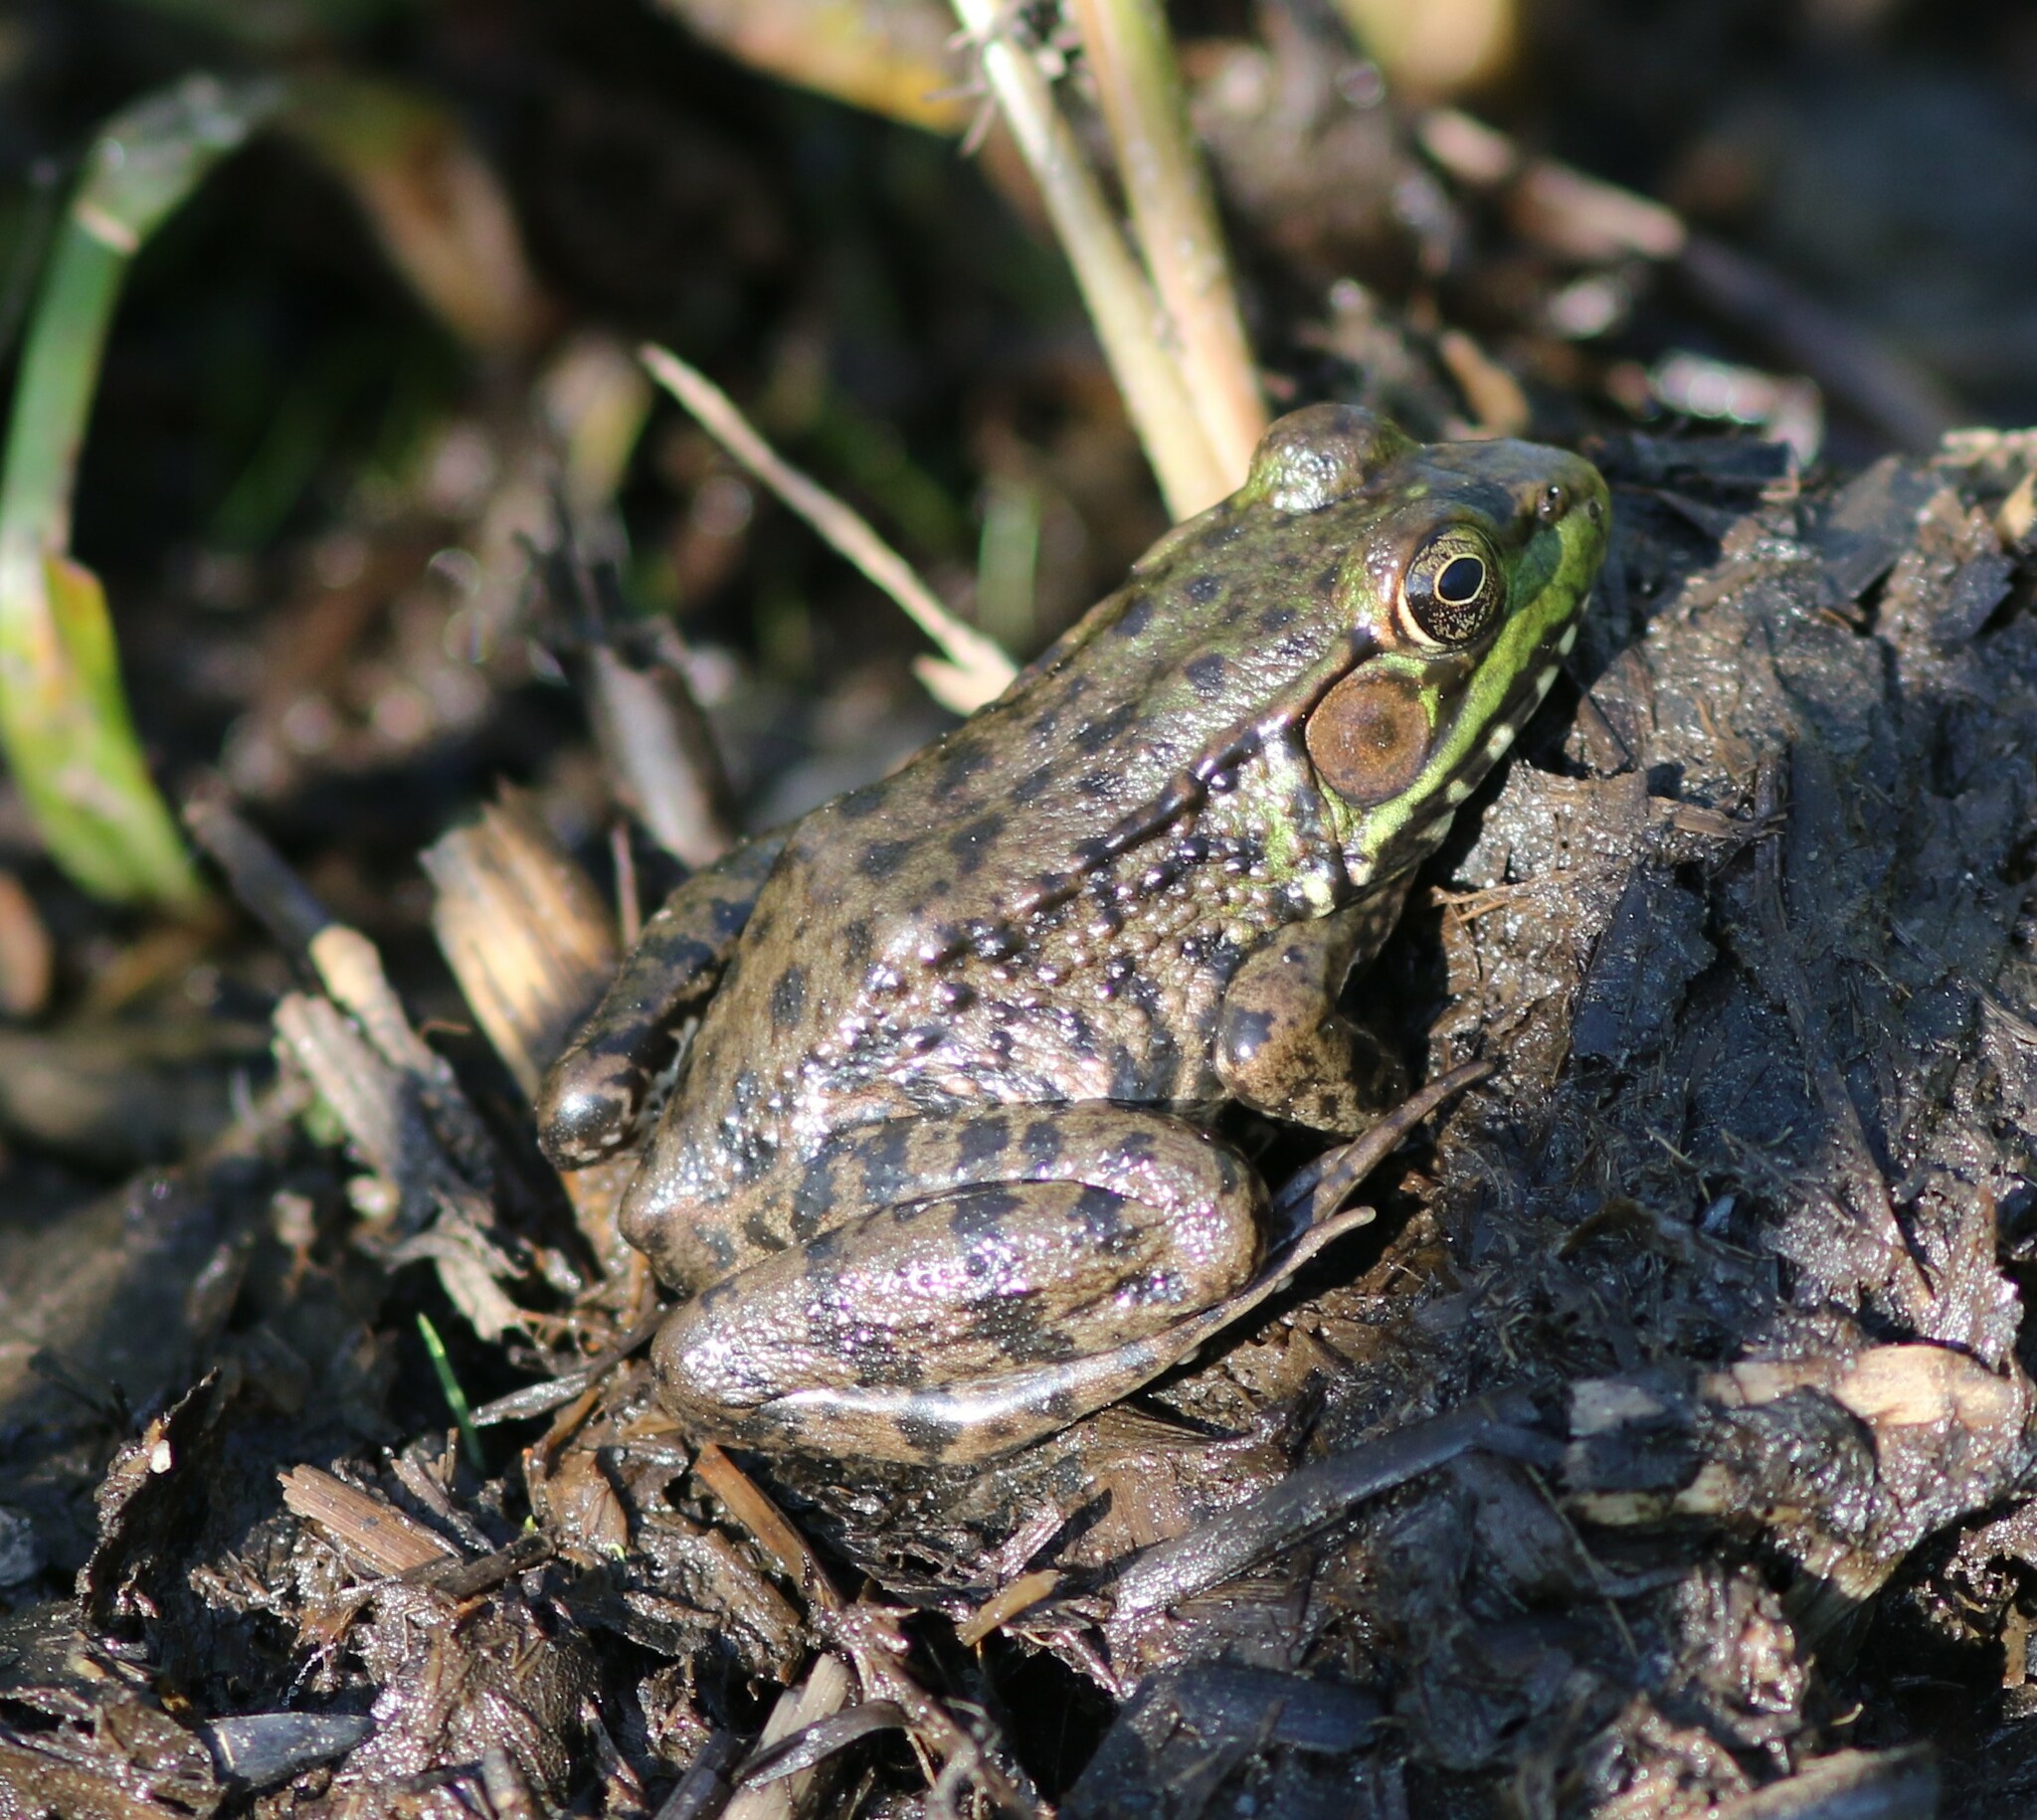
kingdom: Animalia
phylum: Chordata
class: Amphibia
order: Anura
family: Ranidae
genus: Lithobates
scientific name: Lithobates clamitans
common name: Green frog
